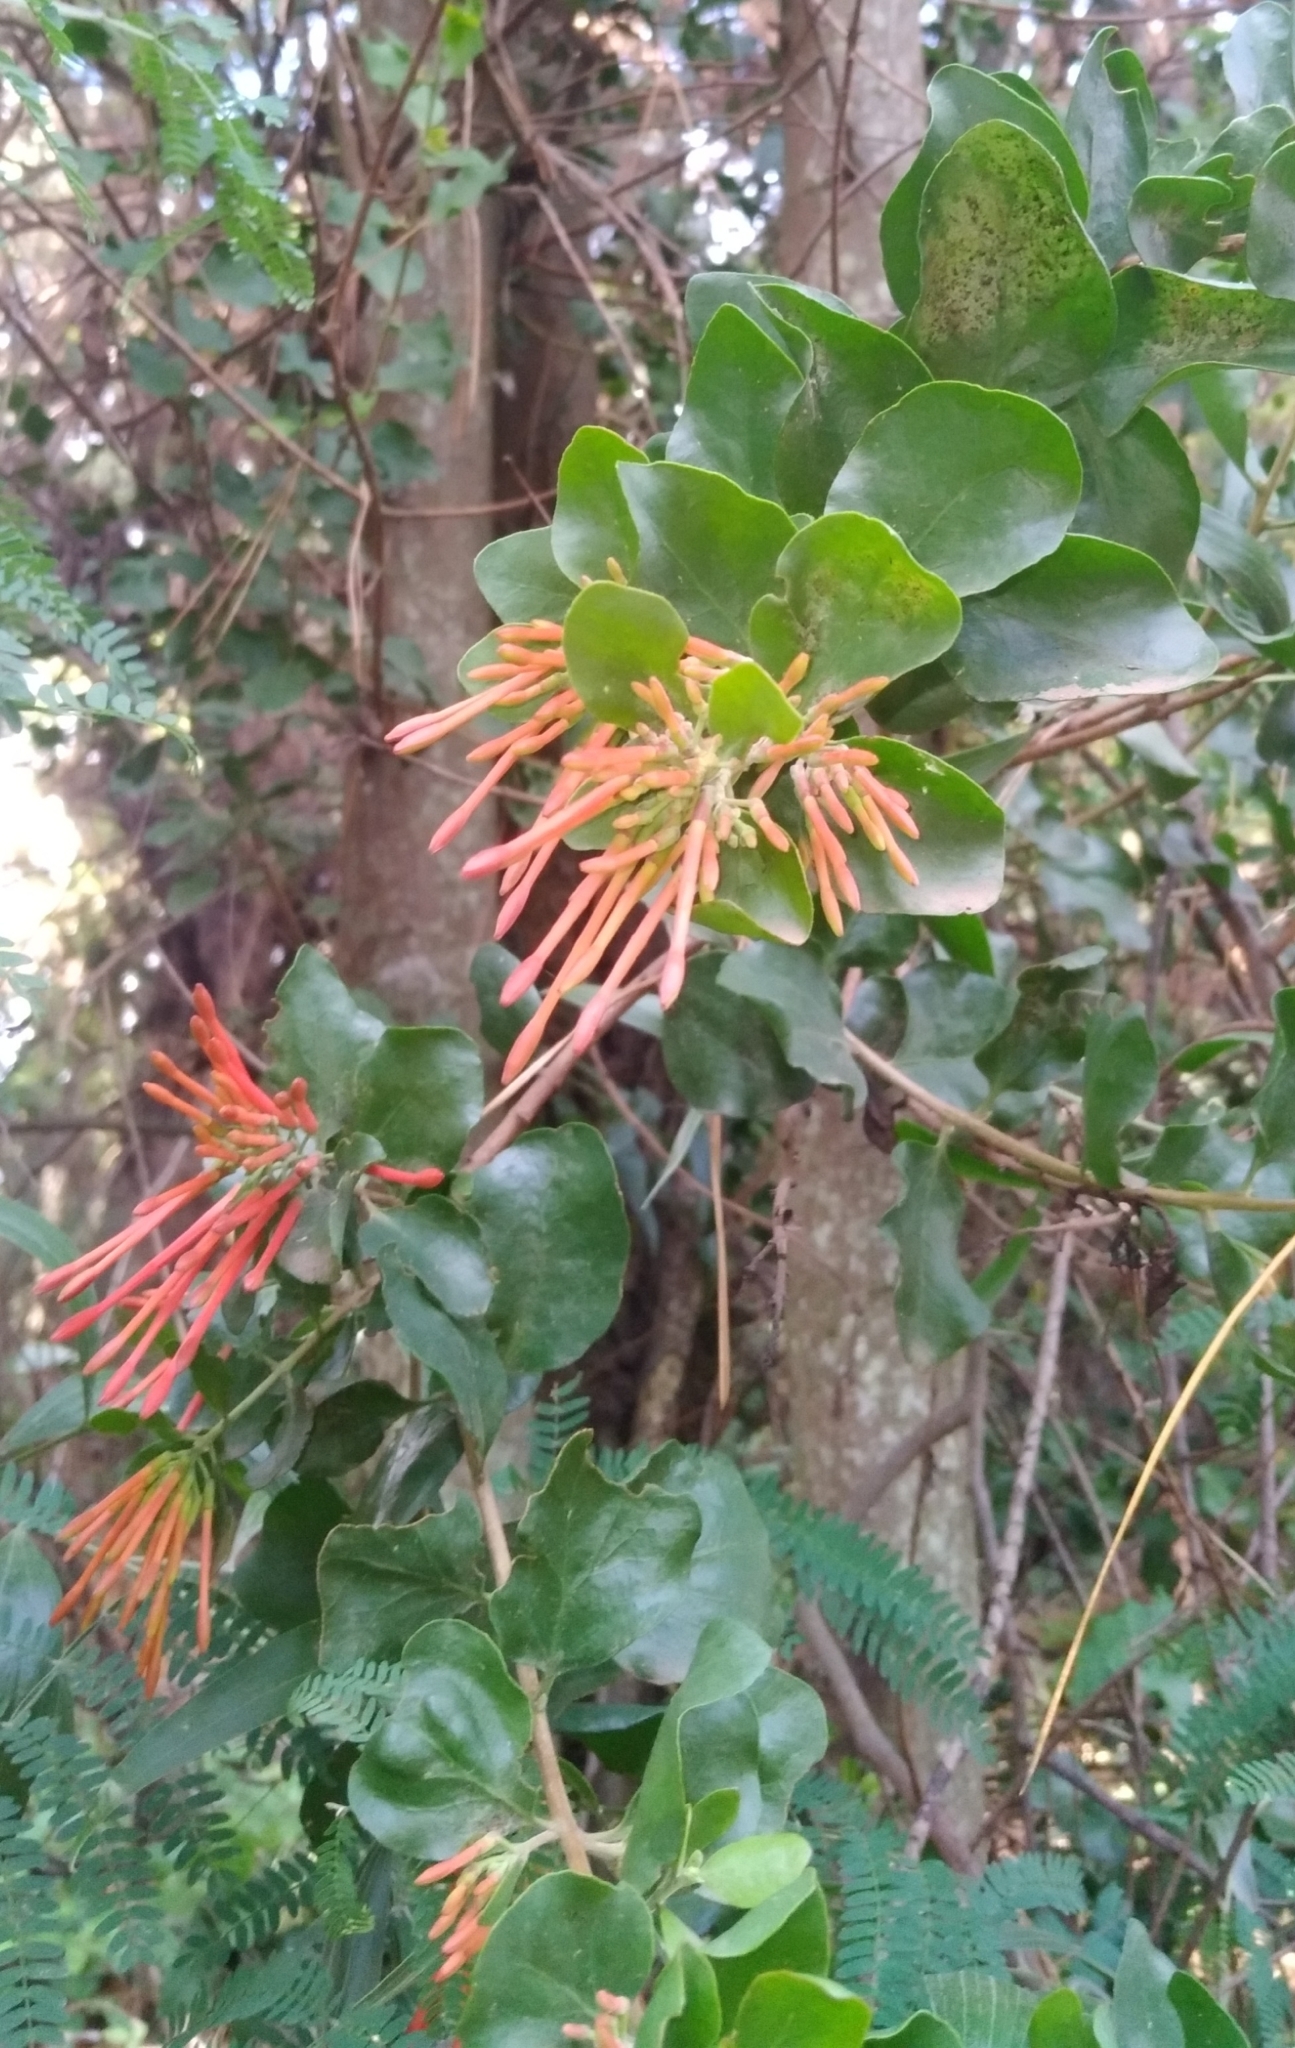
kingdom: Plantae
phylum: Tracheophyta
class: Magnoliopsida
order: Santalales
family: Loranthaceae
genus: Tristerix
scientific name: Tristerix corymbosus
